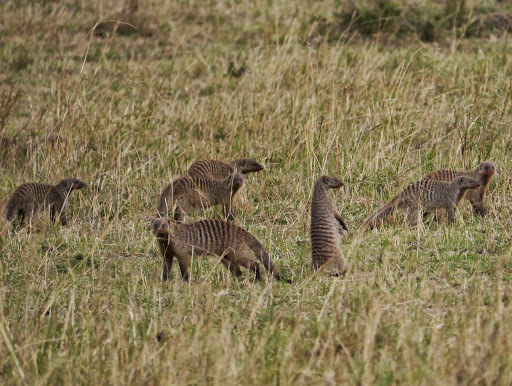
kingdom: Animalia
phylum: Chordata
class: Mammalia
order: Carnivora
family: Herpestidae
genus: Mungos
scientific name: Mungos mungo
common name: Banded mongoose
